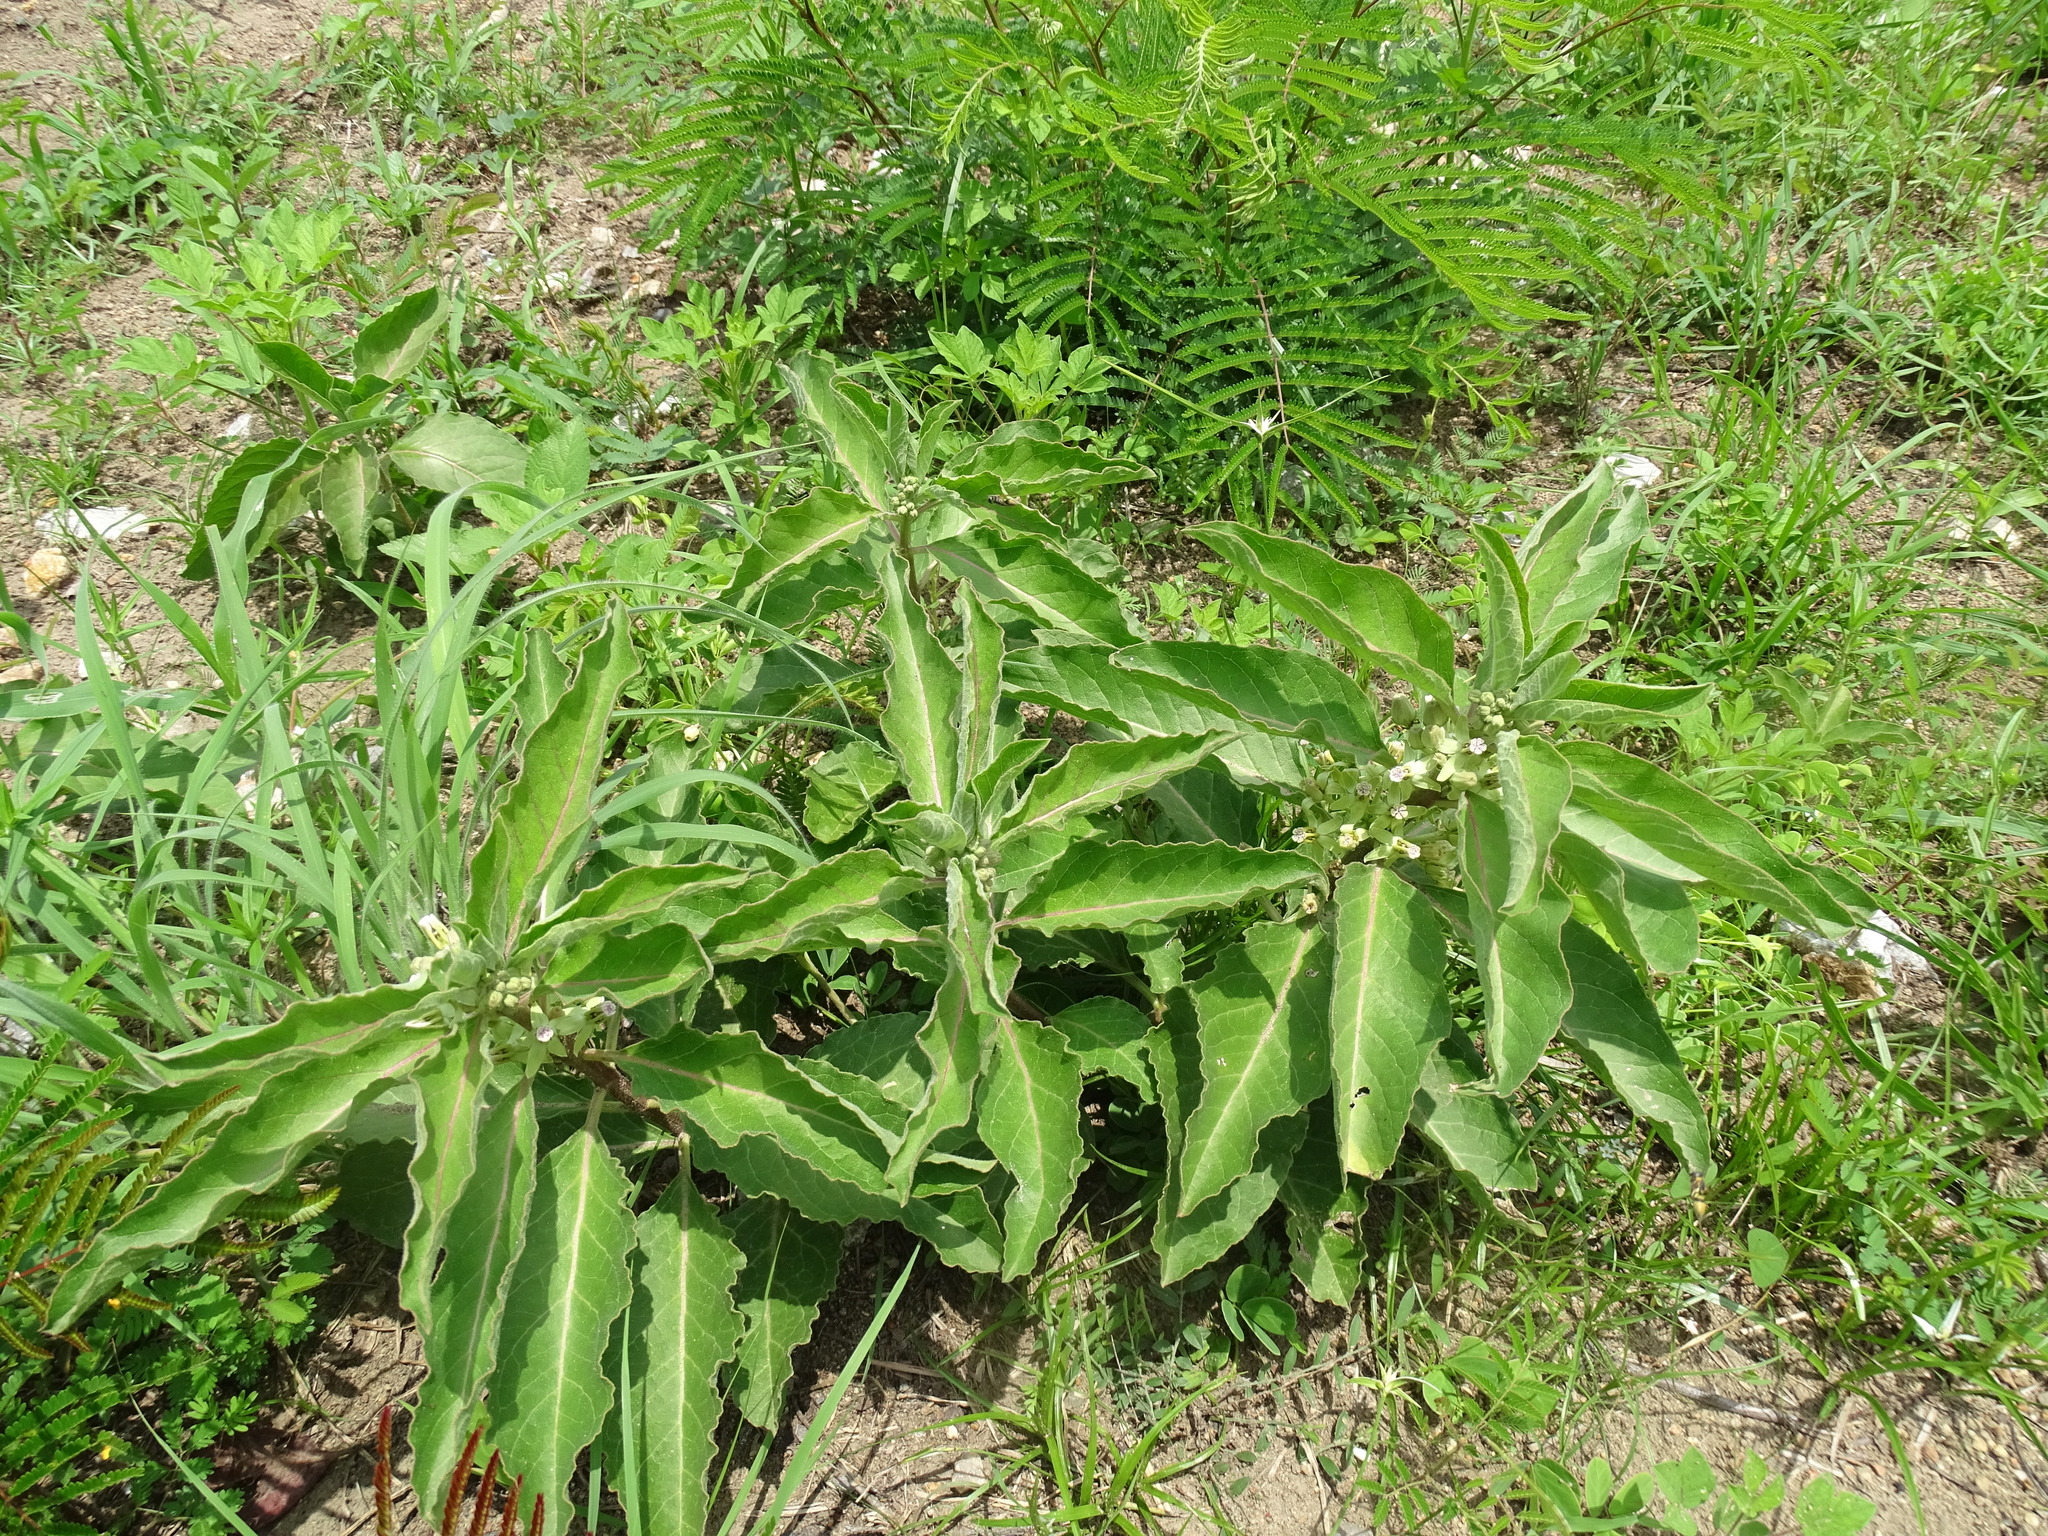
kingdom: Plantae
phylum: Tracheophyta
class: Magnoliopsida
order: Gentianales
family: Apocynaceae
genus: Asclepias
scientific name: Asclepias oenotheroides
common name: Zizotes milkweed
